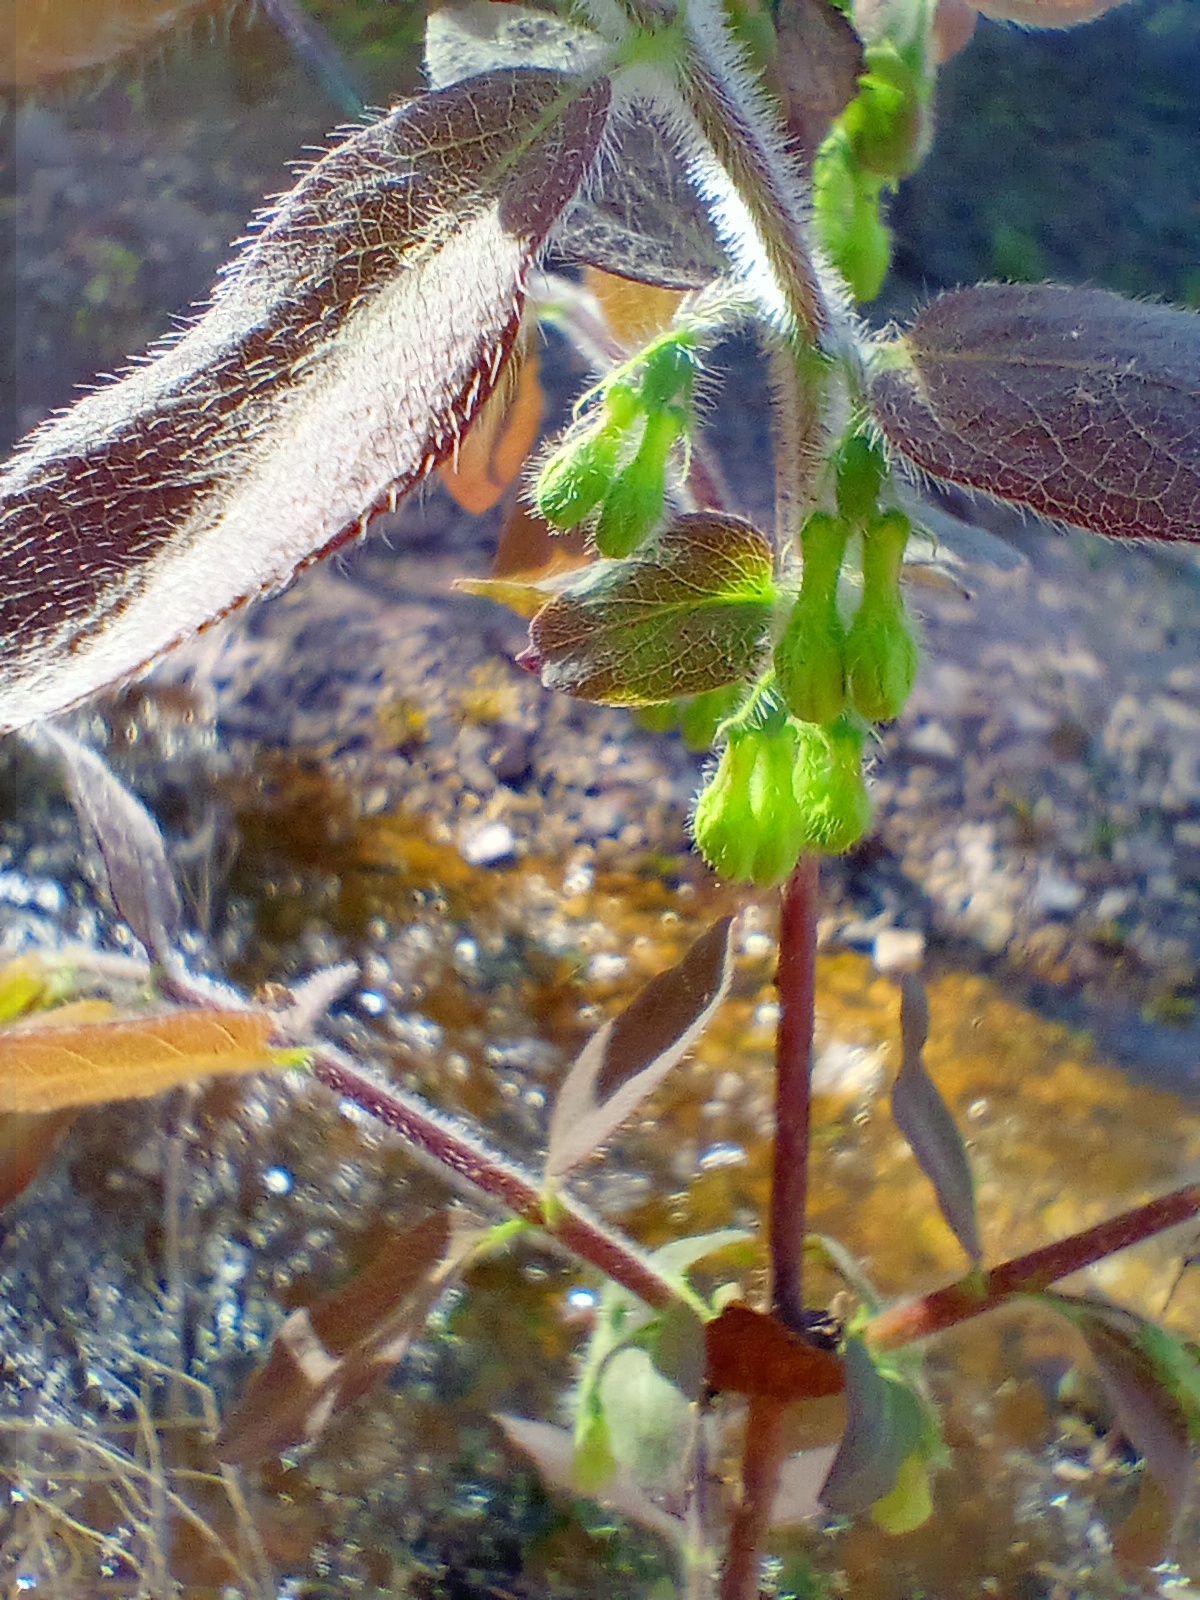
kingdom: Plantae
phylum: Tracheophyta
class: Magnoliopsida
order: Dipsacales
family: Caprifoliaceae
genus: Lonicera
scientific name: Lonicera caerulea
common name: Blue honeysuckle
